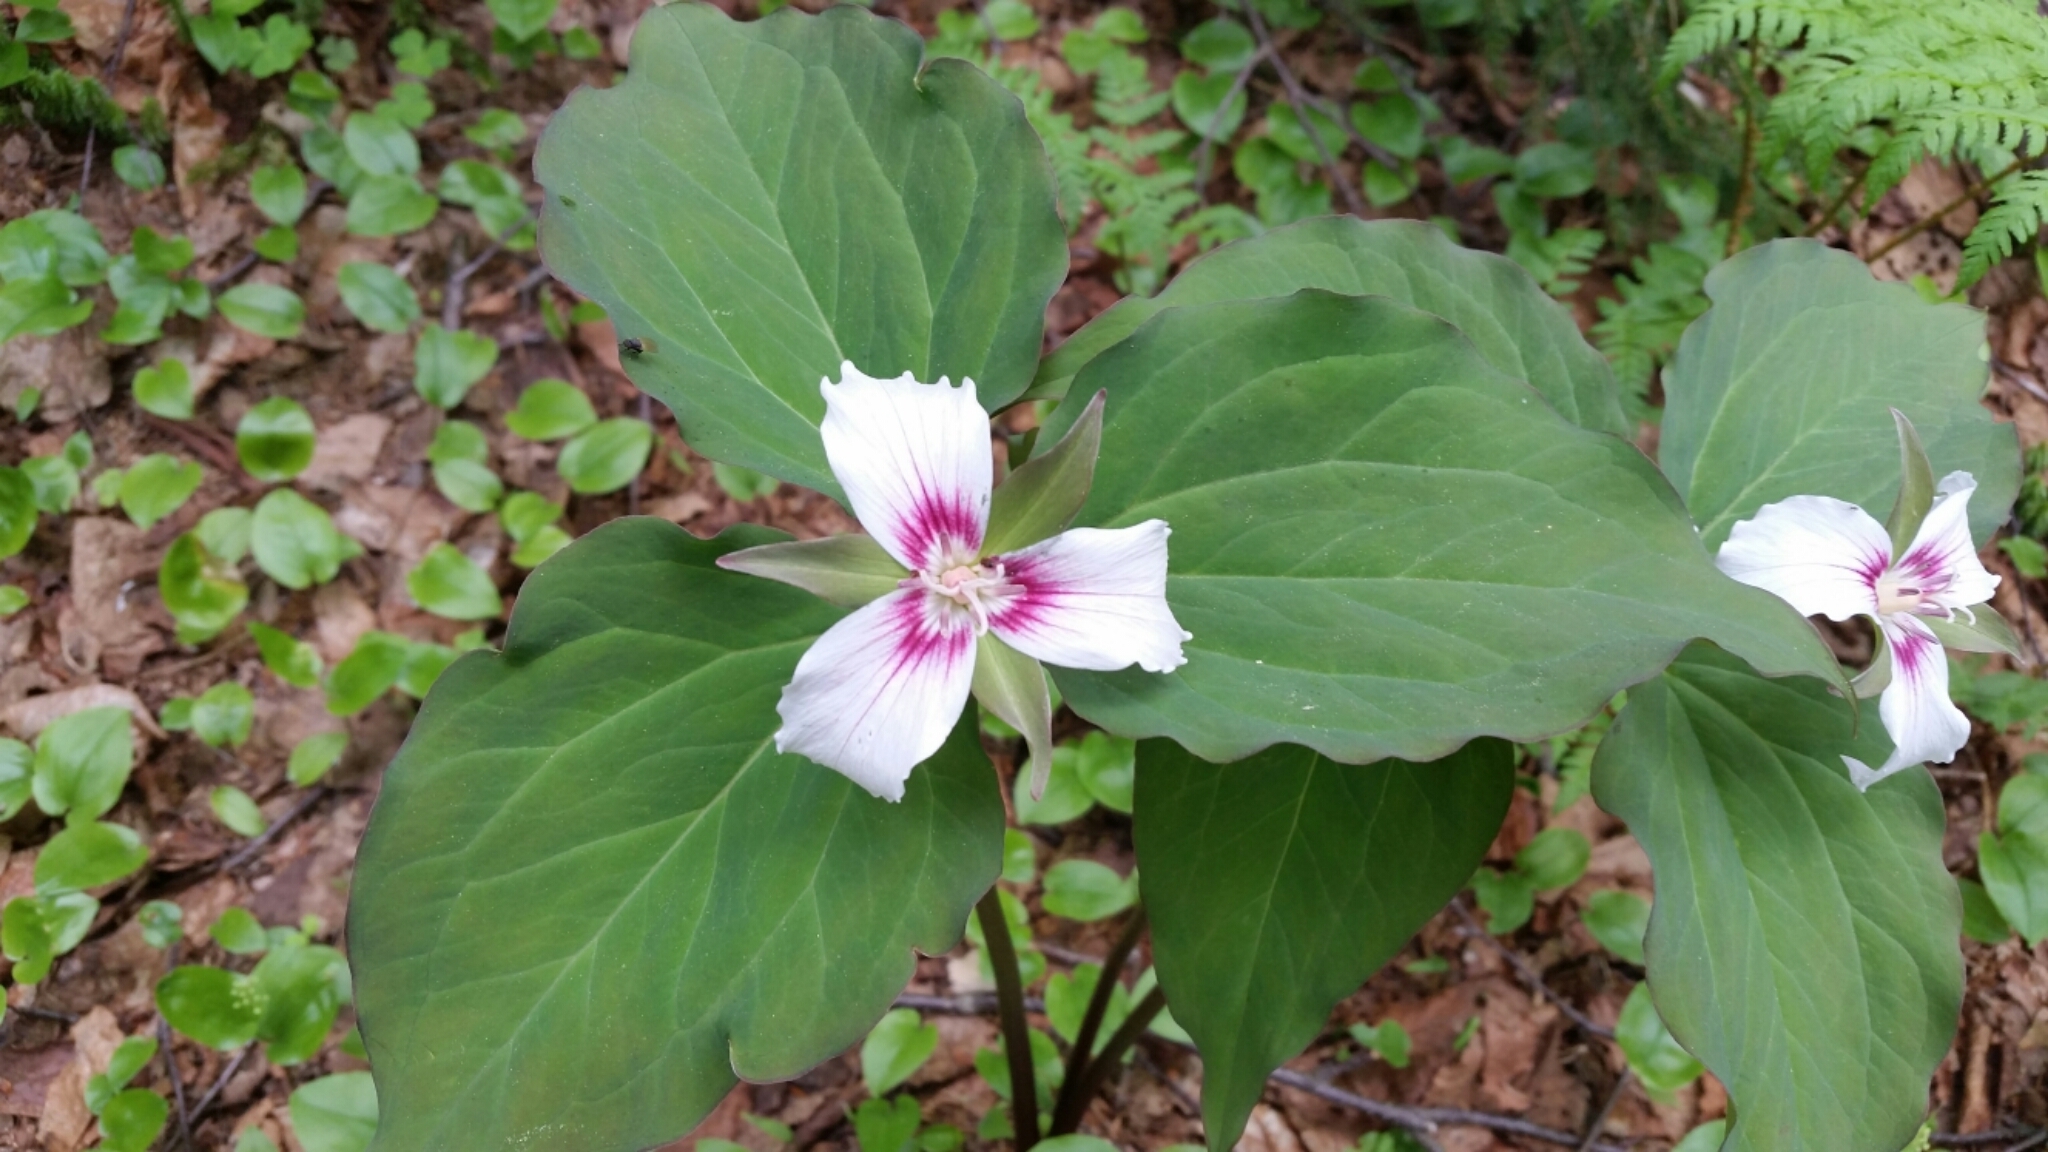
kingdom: Plantae
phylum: Tracheophyta
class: Liliopsida
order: Liliales
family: Melanthiaceae
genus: Trillium
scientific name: Trillium undulatum
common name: Paint trillium
